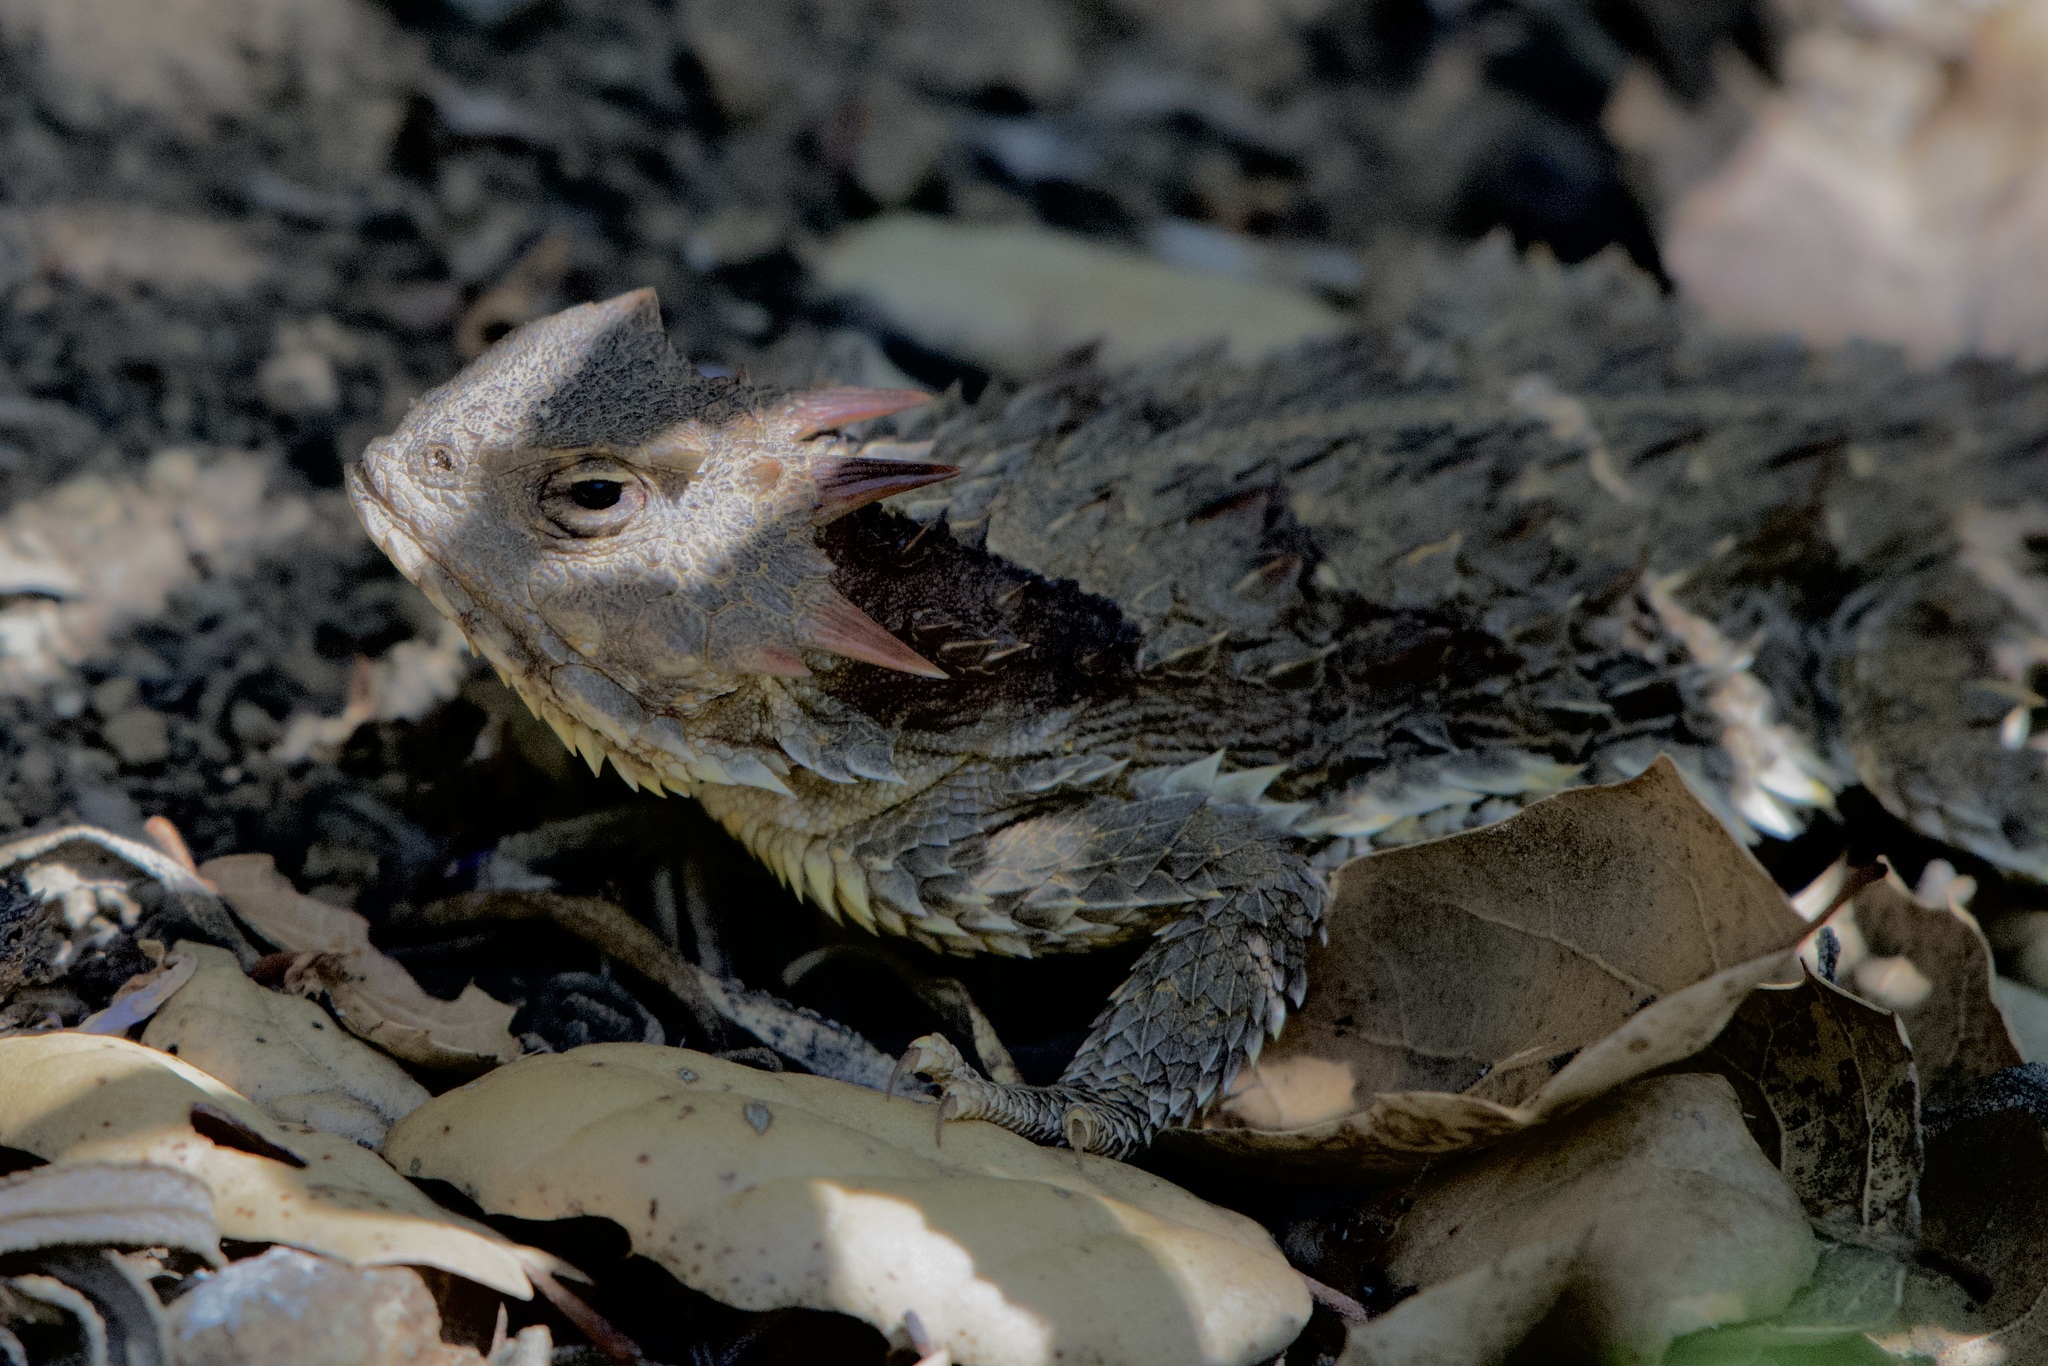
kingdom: Animalia
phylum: Chordata
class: Squamata
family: Phrynosomatidae
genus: Phrynosoma
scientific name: Phrynosoma blainvillii
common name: San diego horned lizard
